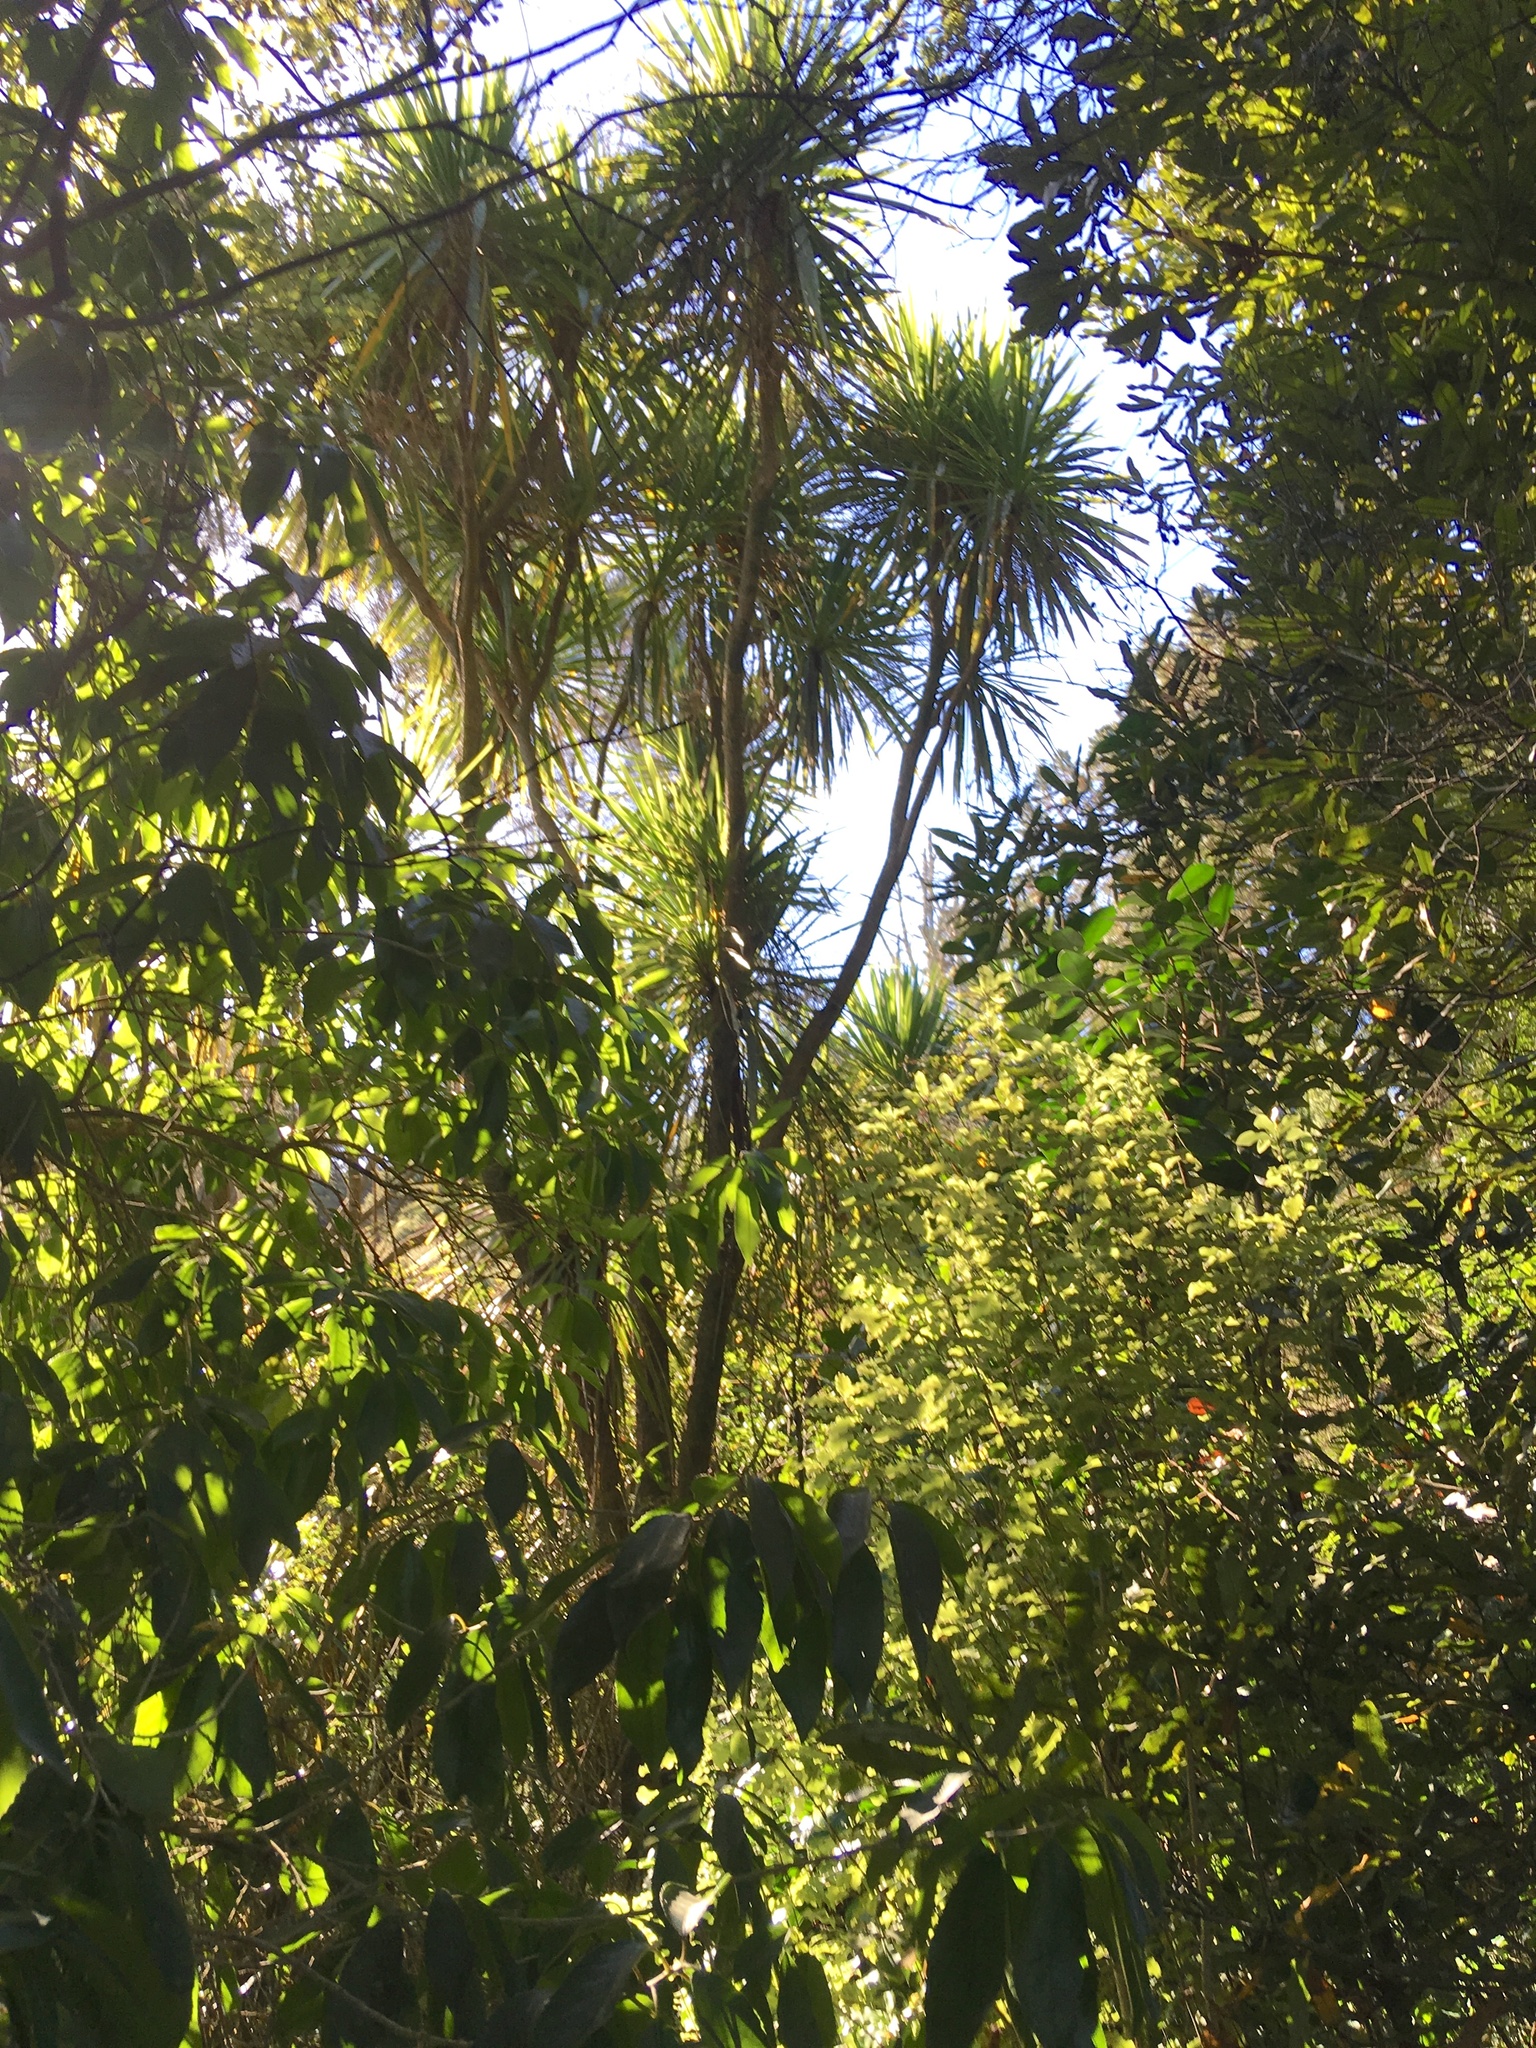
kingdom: Plantae
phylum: Tracheophyta
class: Liliopsida
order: Asparagales
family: Asparagaceae
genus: Cordyline
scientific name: Cordyline australis
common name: Cabbage-palm
